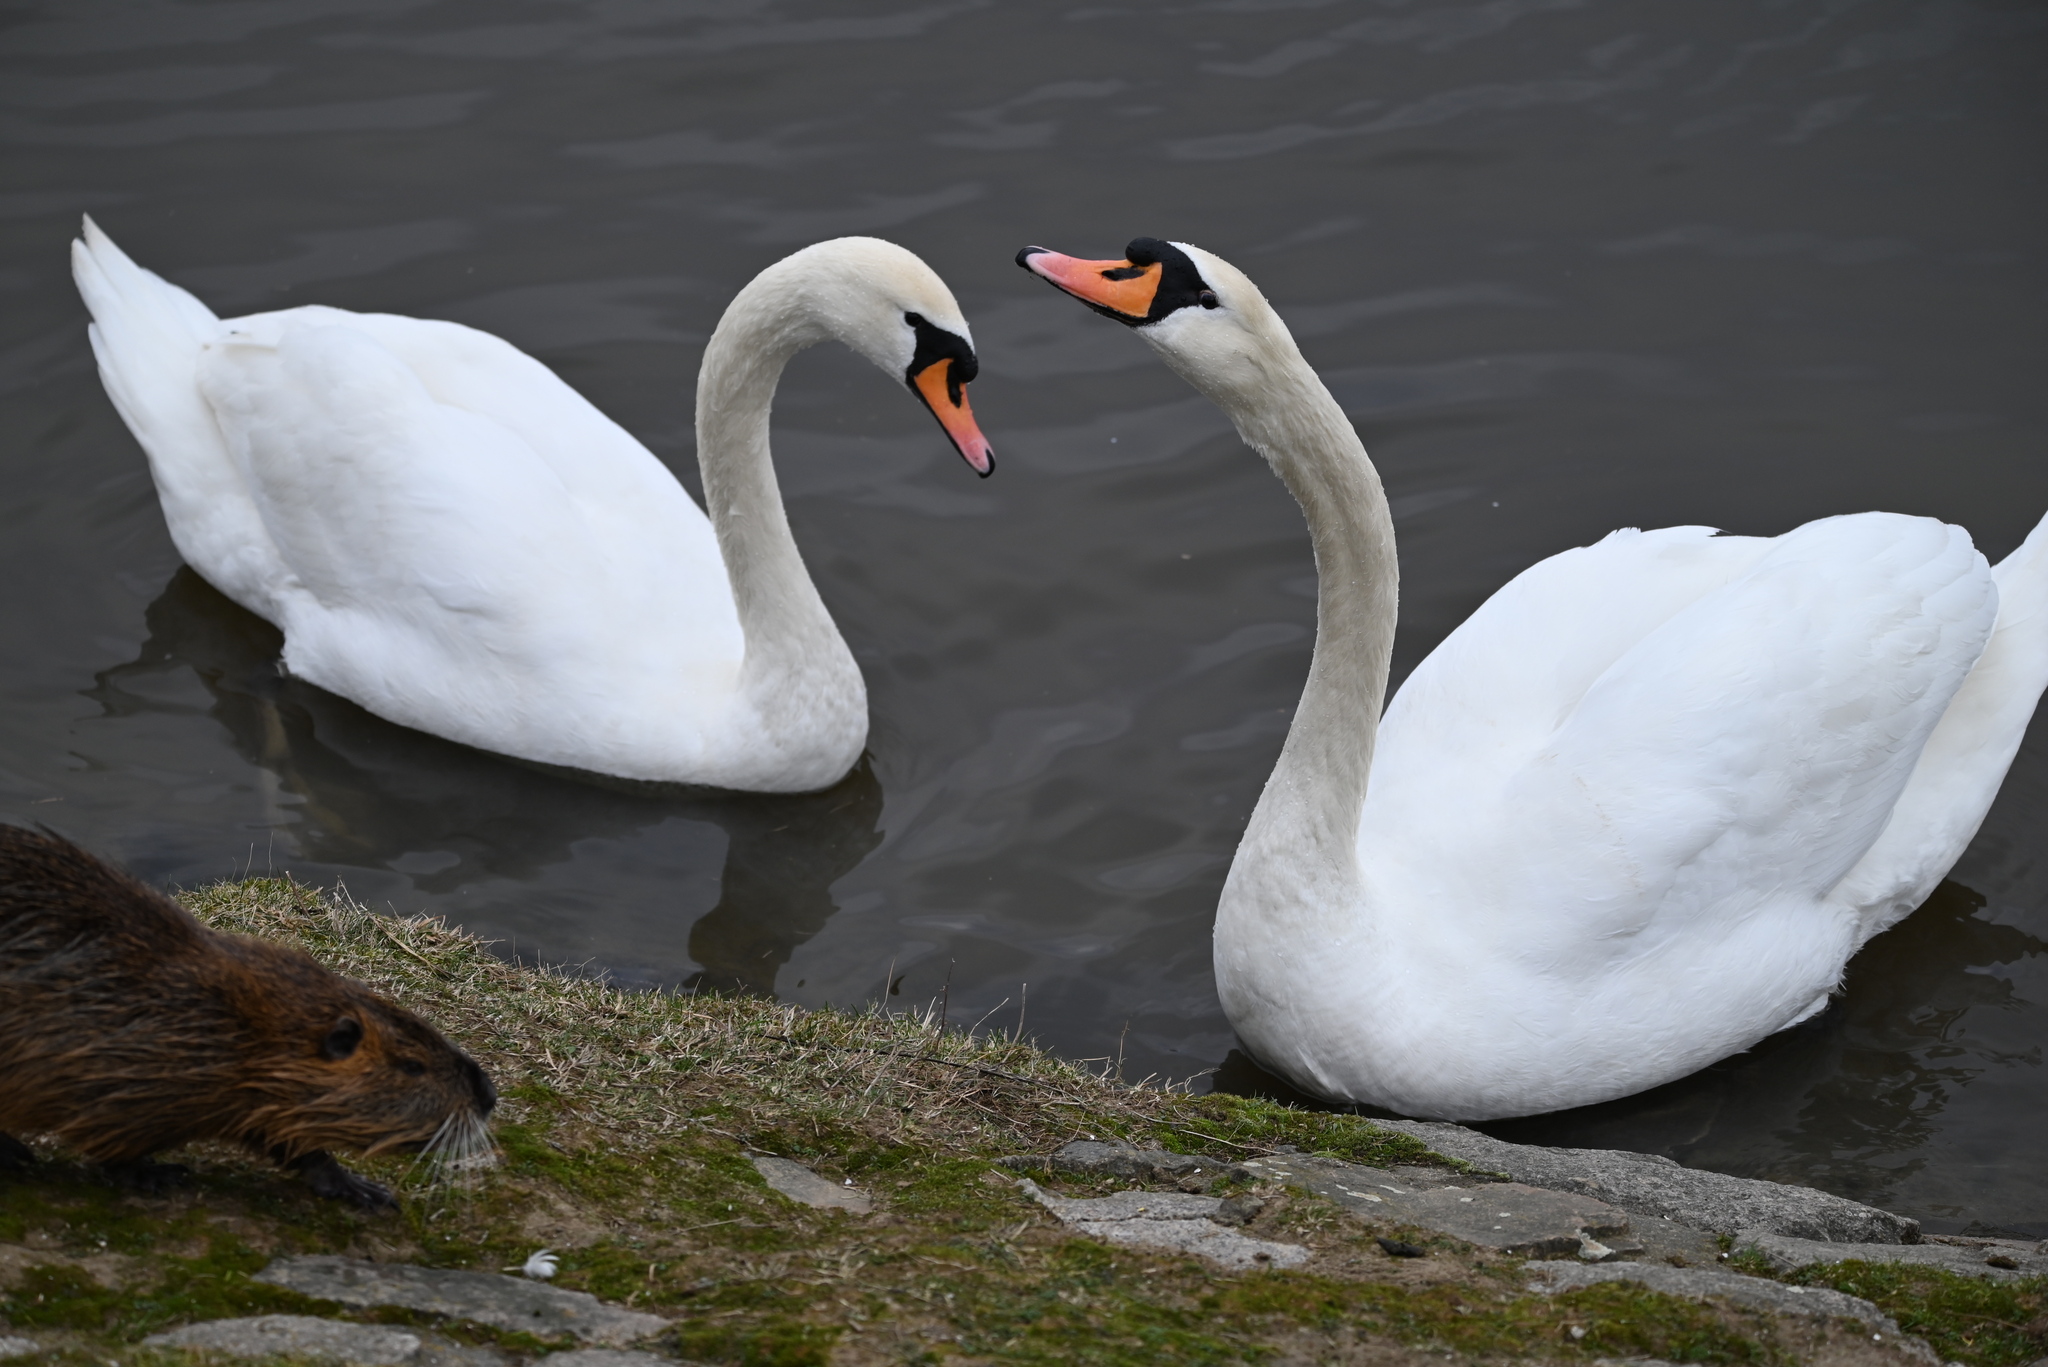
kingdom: Animalia
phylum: Chordata
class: Aves
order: Anseriformes
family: Anatidae
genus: Cygnus
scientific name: Cygnus olor
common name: Mute swan
